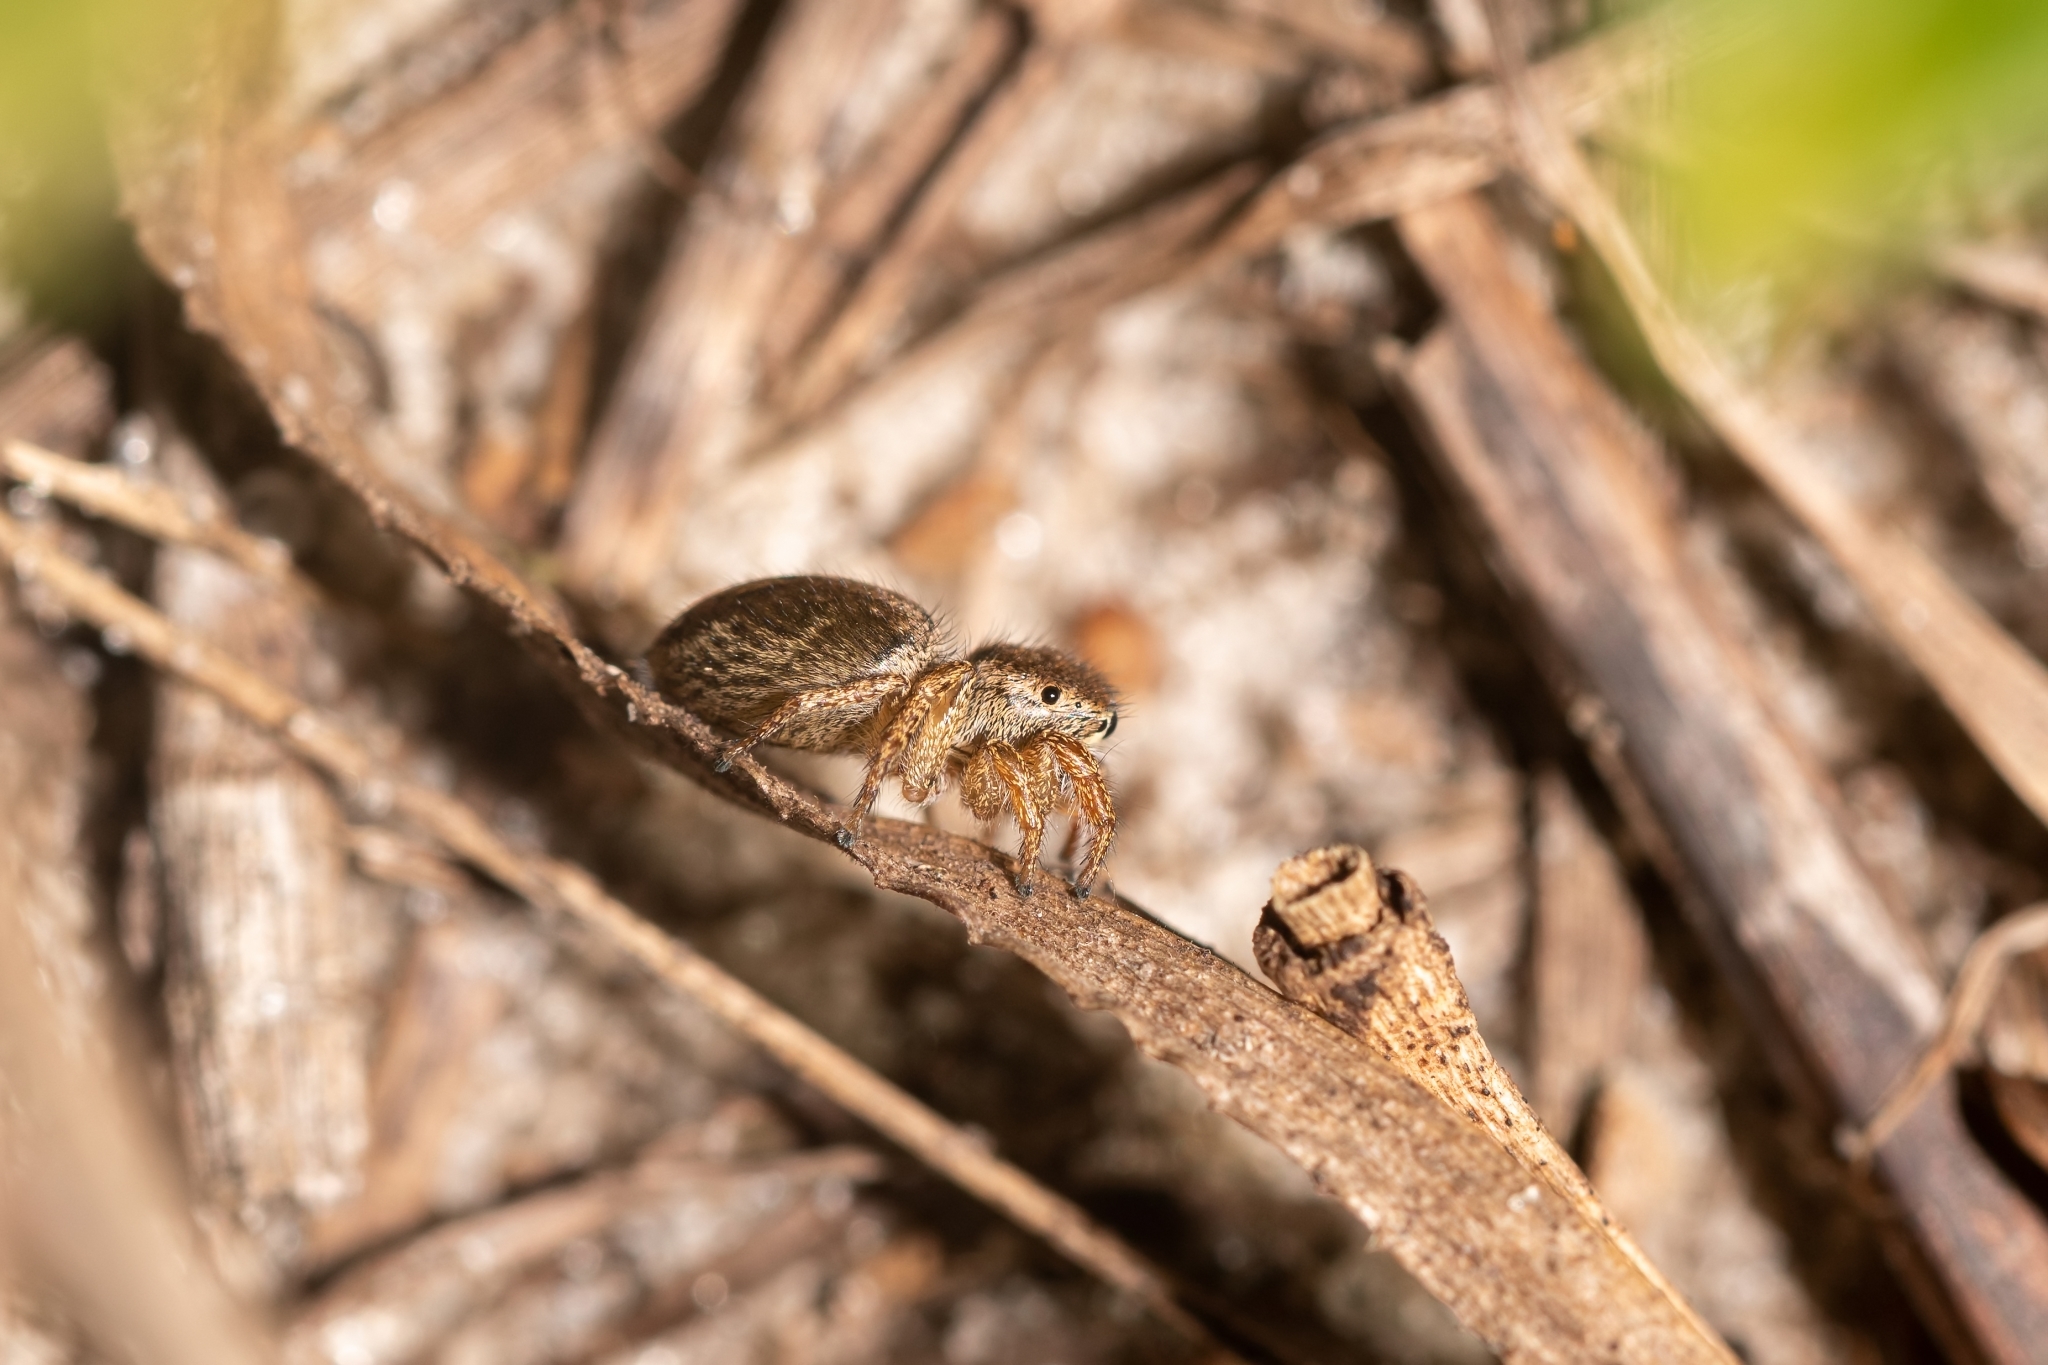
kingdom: Animalia
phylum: Arthropoda
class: Arachnida
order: Araneae
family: Salticidae
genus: Habronattus
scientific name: Habronattus brunneus
